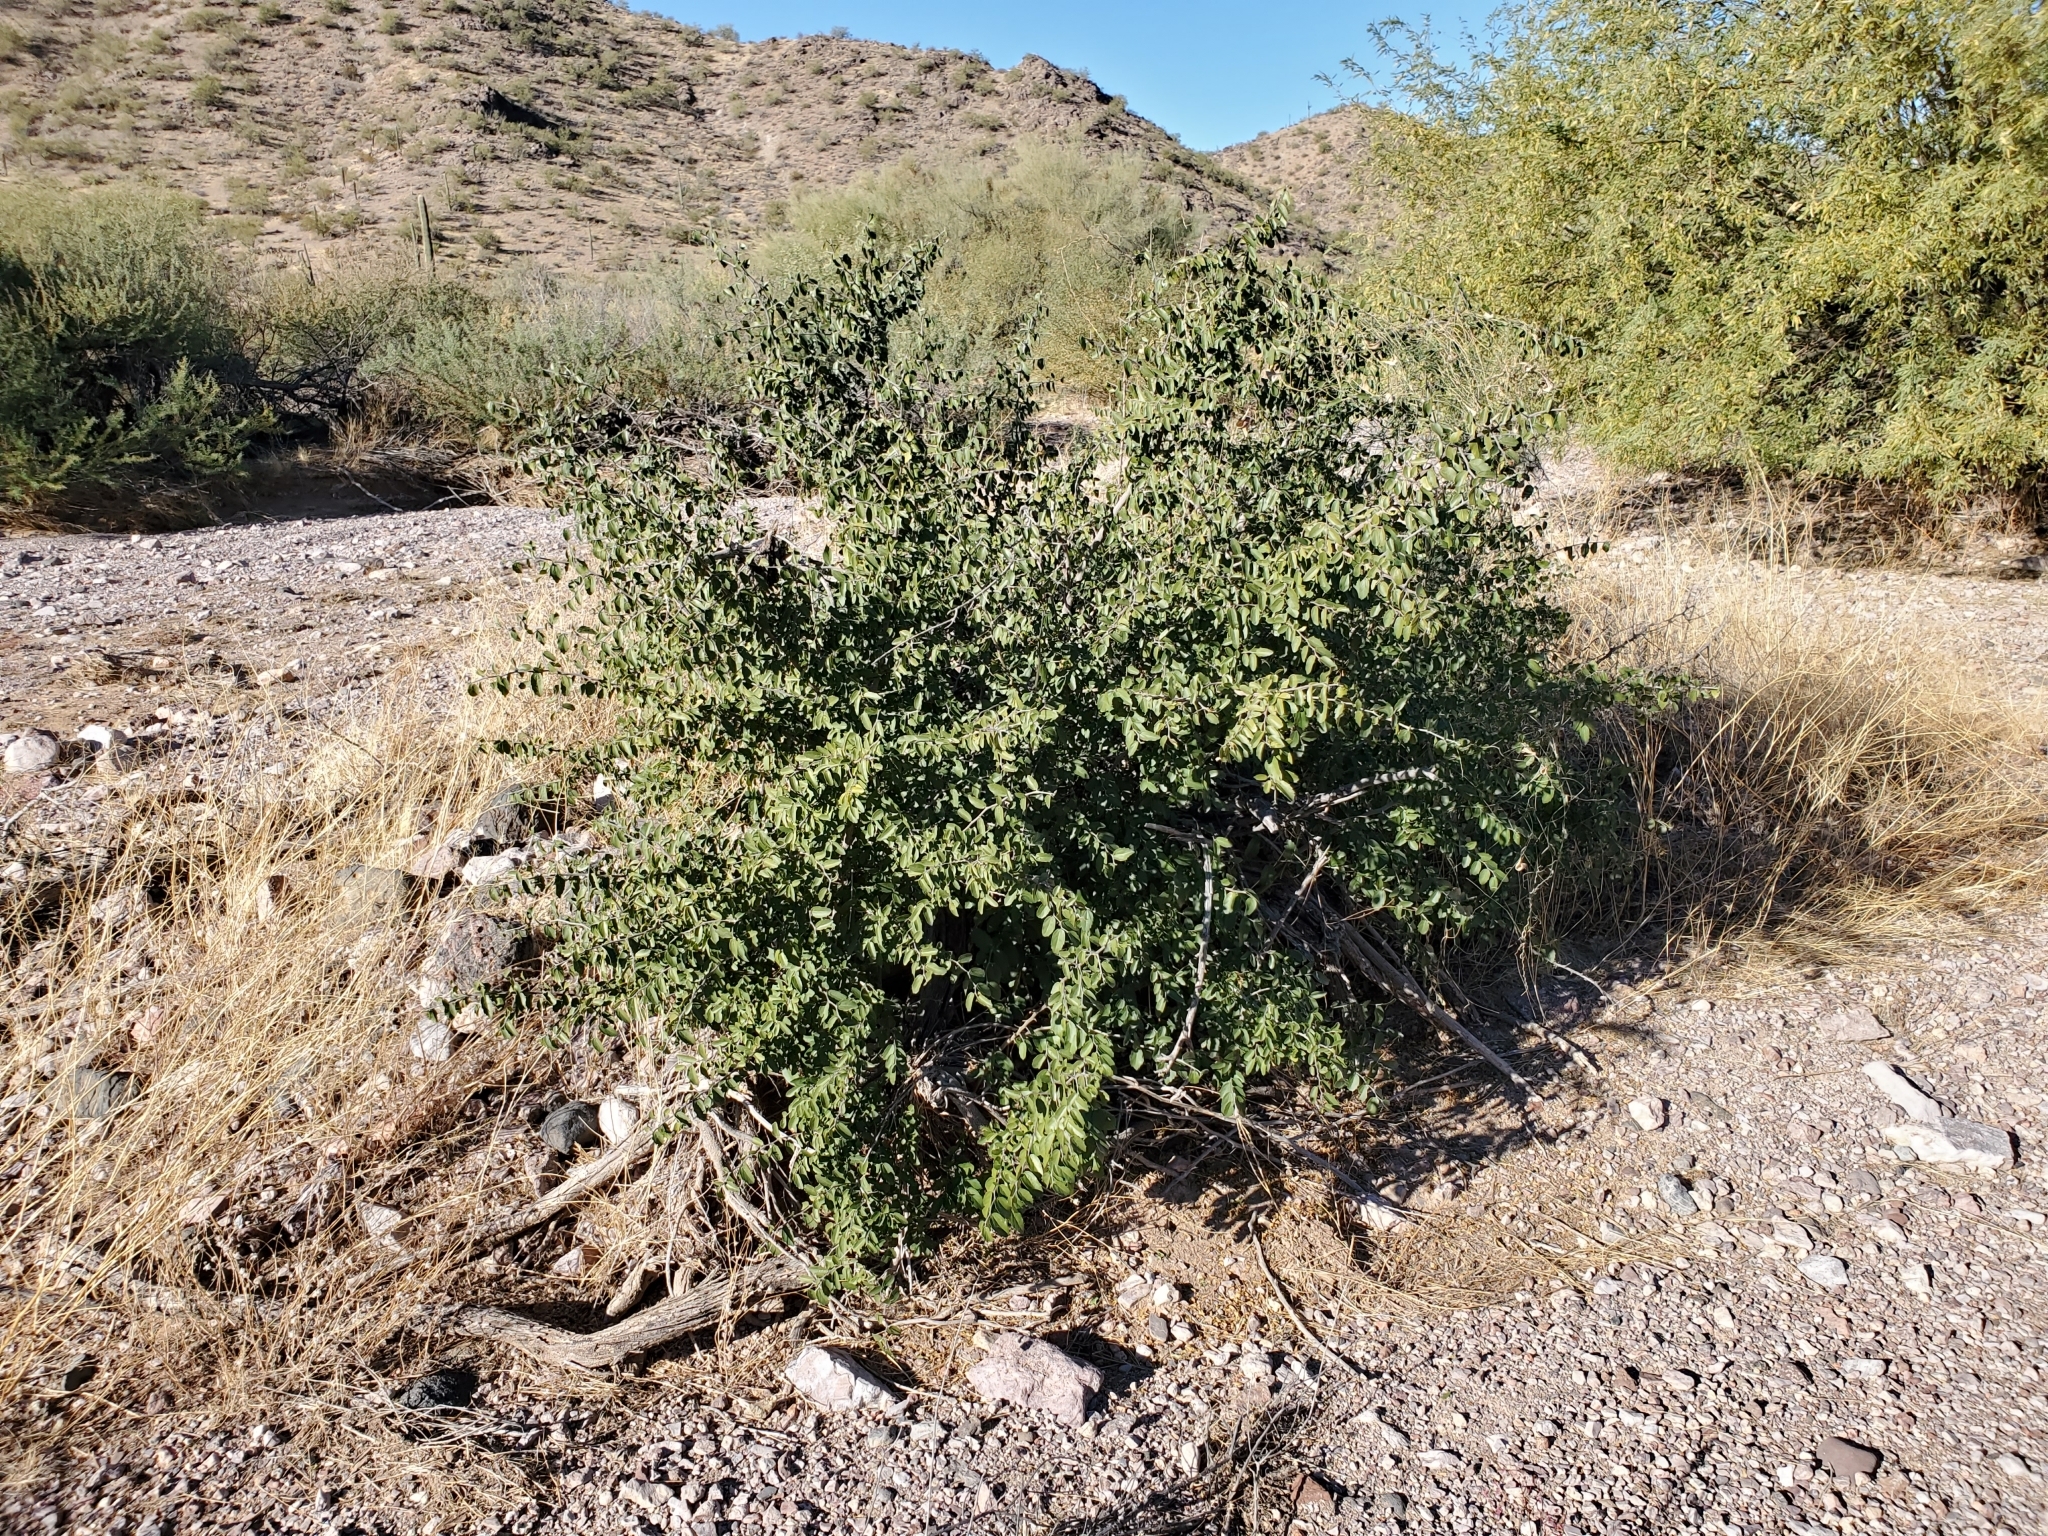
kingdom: Plantae
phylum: Tracheophyta
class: Magnoliopsida
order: Rosales
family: Cannabaceae
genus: Celtis
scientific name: Celtis pallida
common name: Desert hackberry
